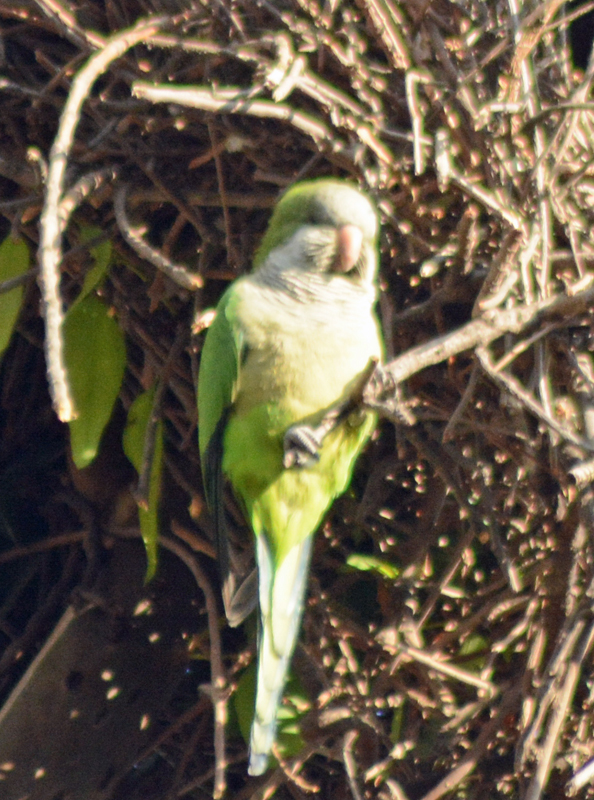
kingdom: Animalia
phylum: Chordata
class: Aves
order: Psittaciformes
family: Psittacidae
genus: Myiopsitta
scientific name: Myiopsitta monachus
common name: Monk parakeet
